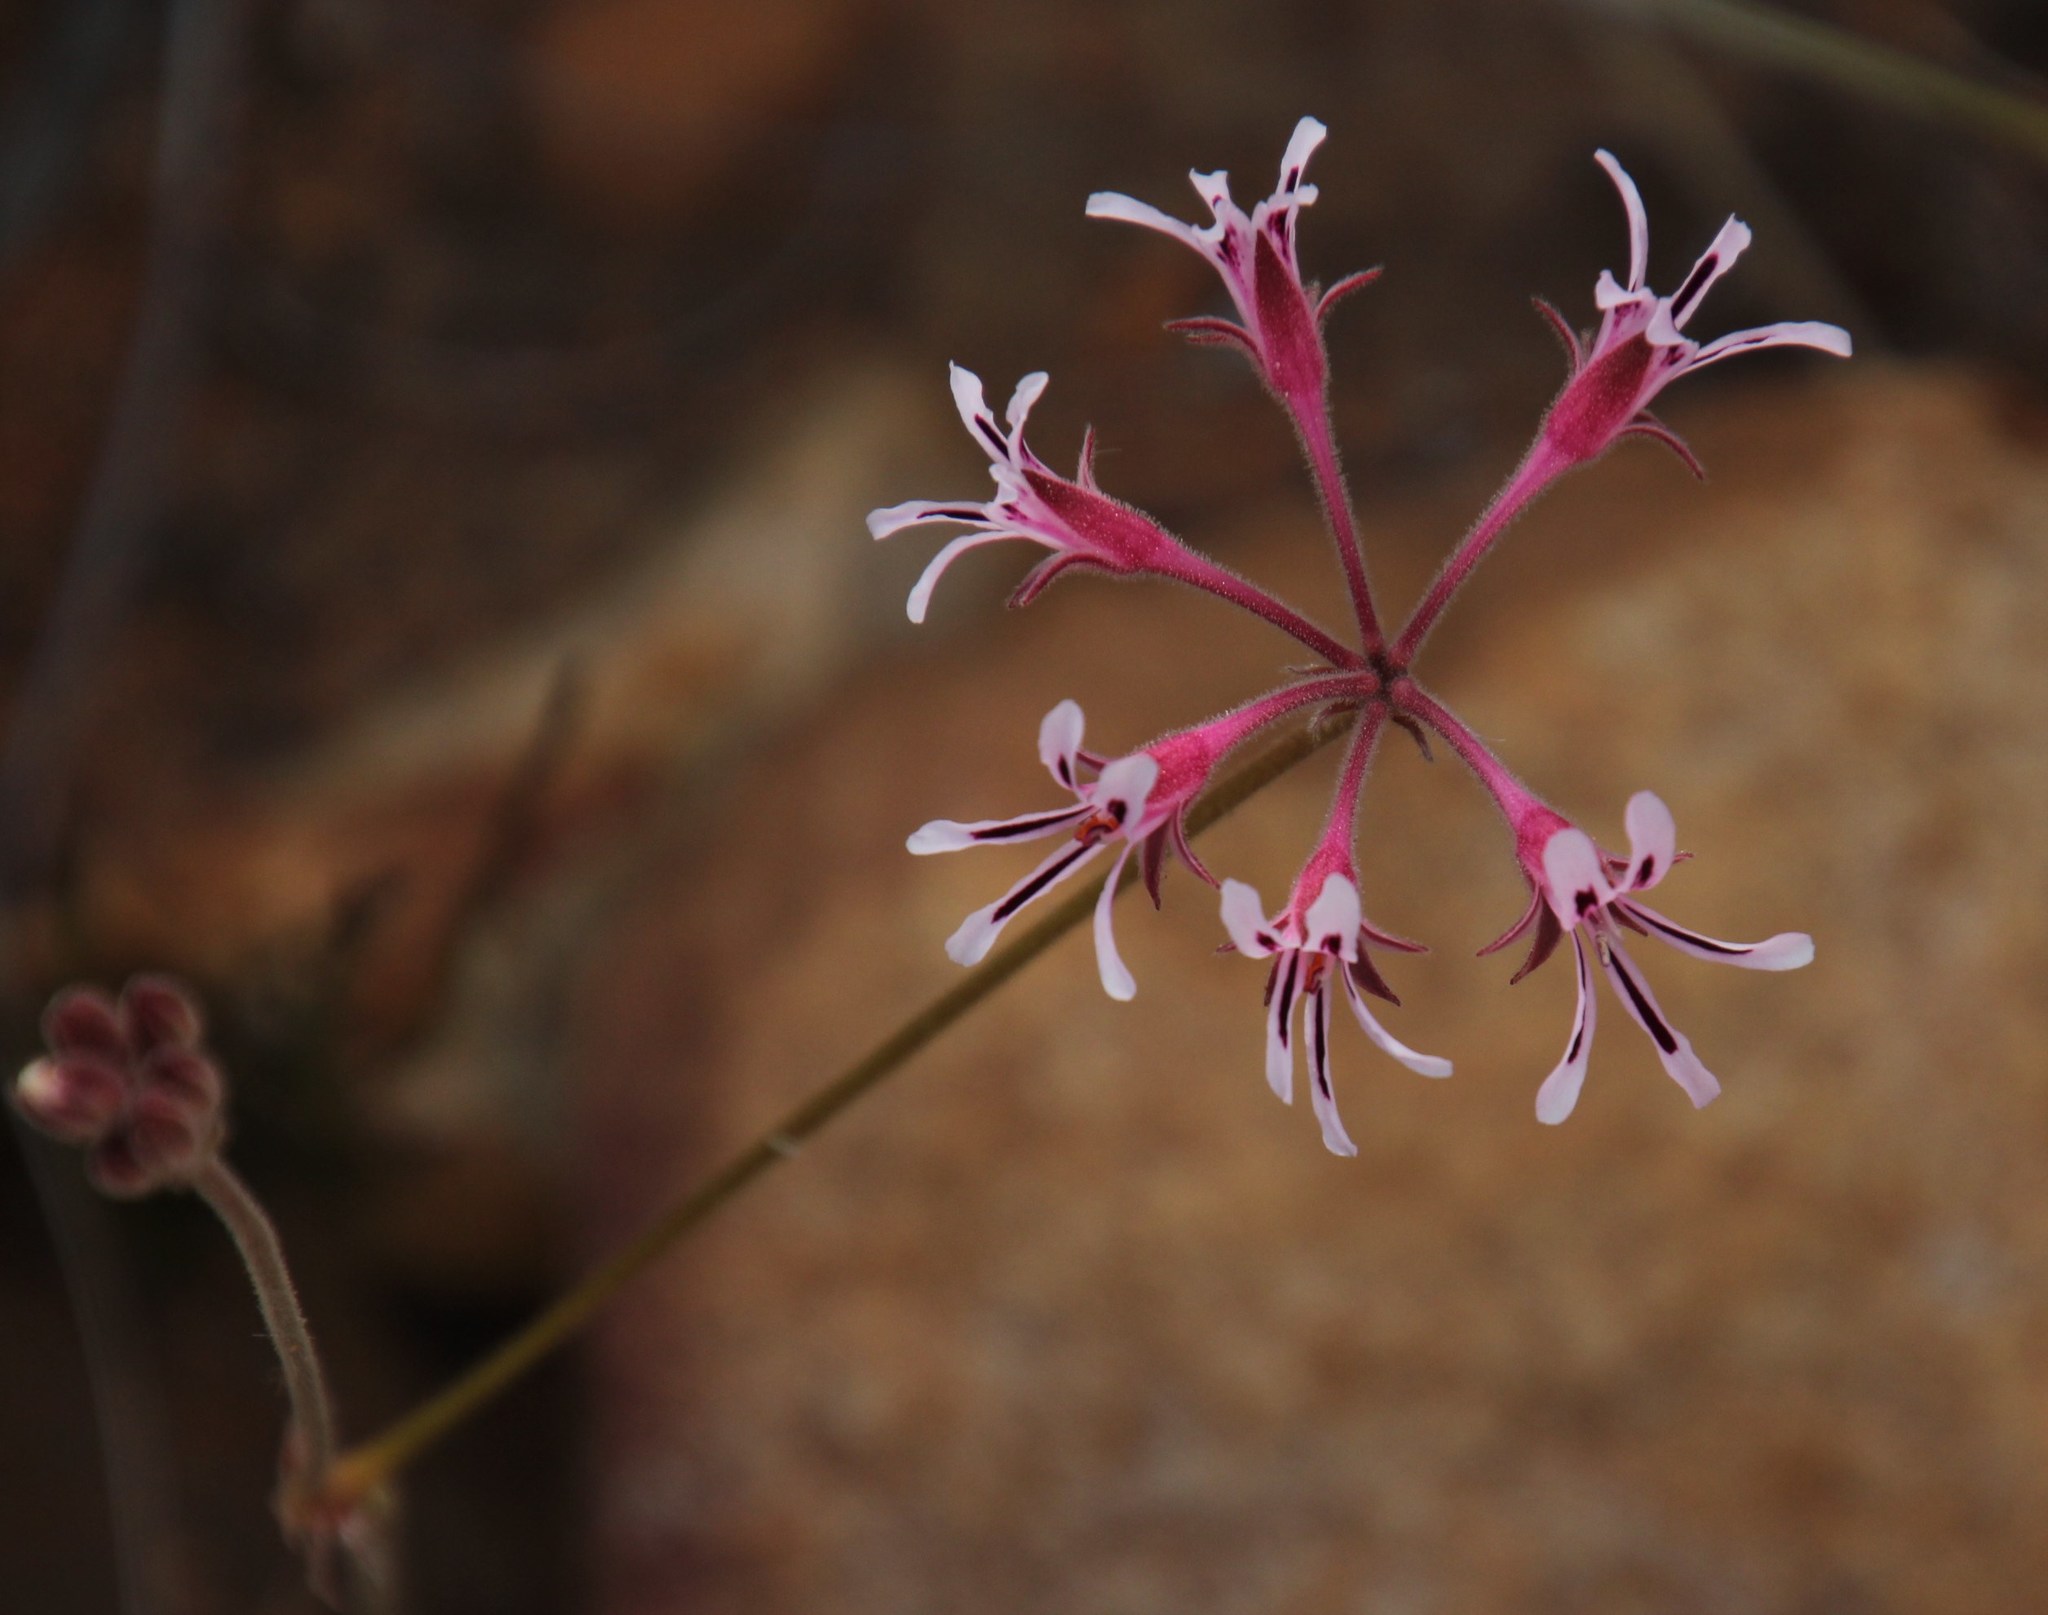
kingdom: Plantae
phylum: Tracheophyta
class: Magnoliopsida
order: Geraniales
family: Geraniaceae
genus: Pelargonium
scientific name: Pelargonium pilosellifolium
